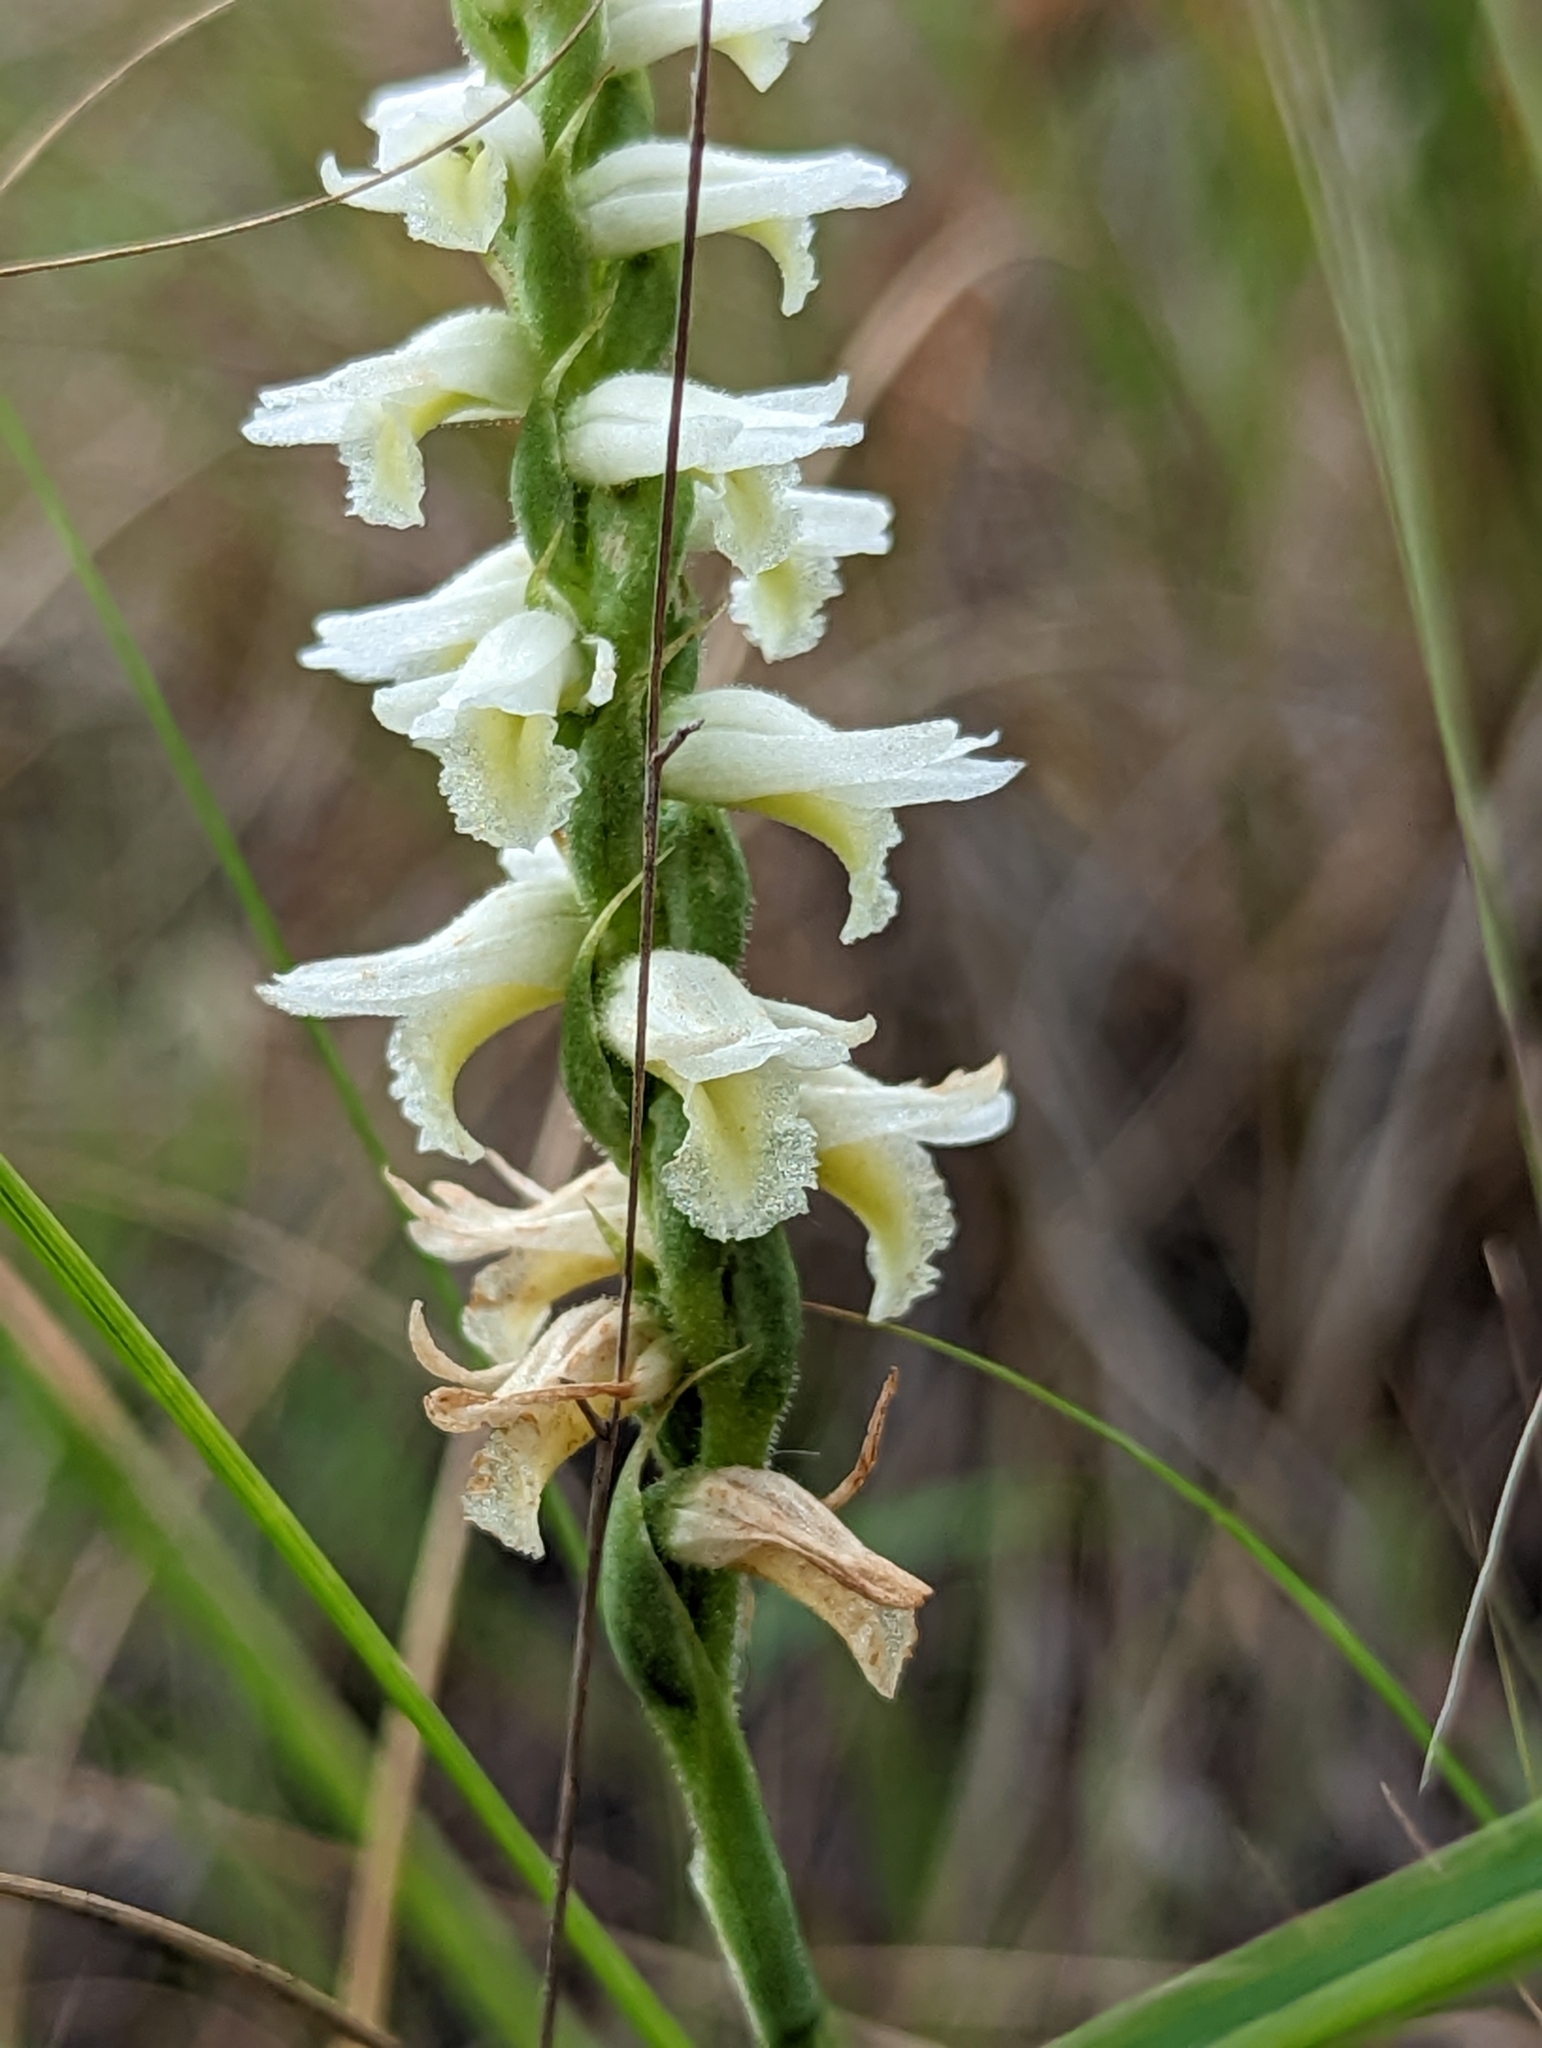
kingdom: Plantae
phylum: Tracheophyta
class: Liliopsida
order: Asparagales
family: Orchidaceae
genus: Spiranthes
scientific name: Spiranthes magnicamporum
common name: Great plains ladies'-tresses
